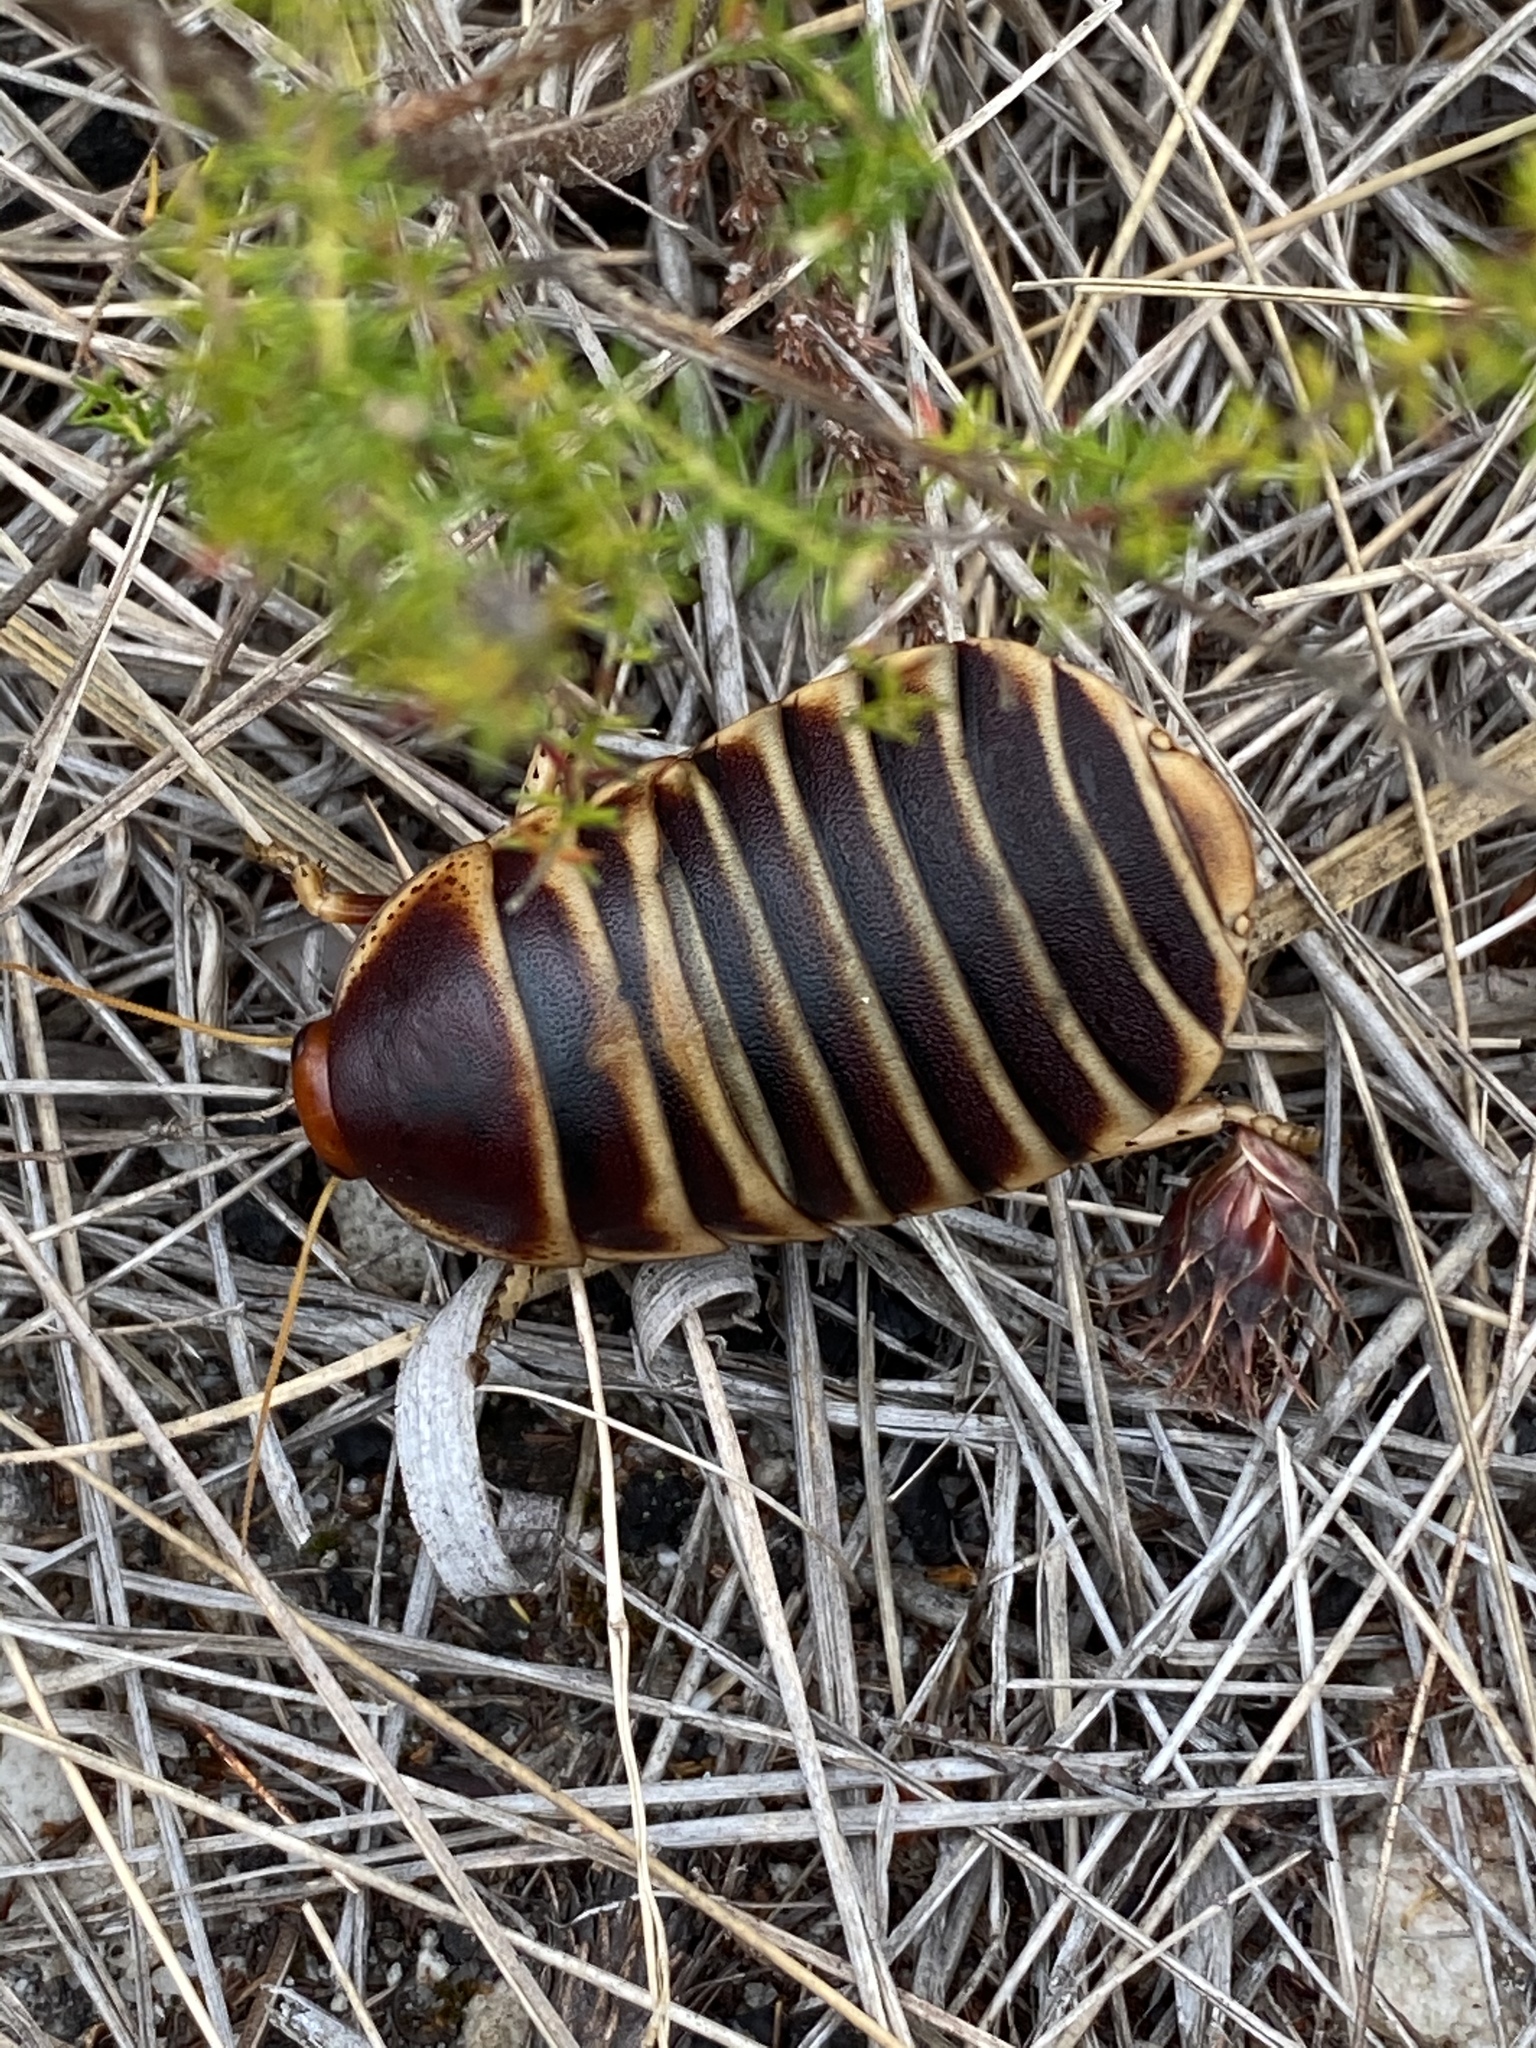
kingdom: Animalia
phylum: Arthropoda
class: Insecta
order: Blattodea
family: Blaberidae
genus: Aptera
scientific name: Aptera fusca
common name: Cape mountain cockroach
